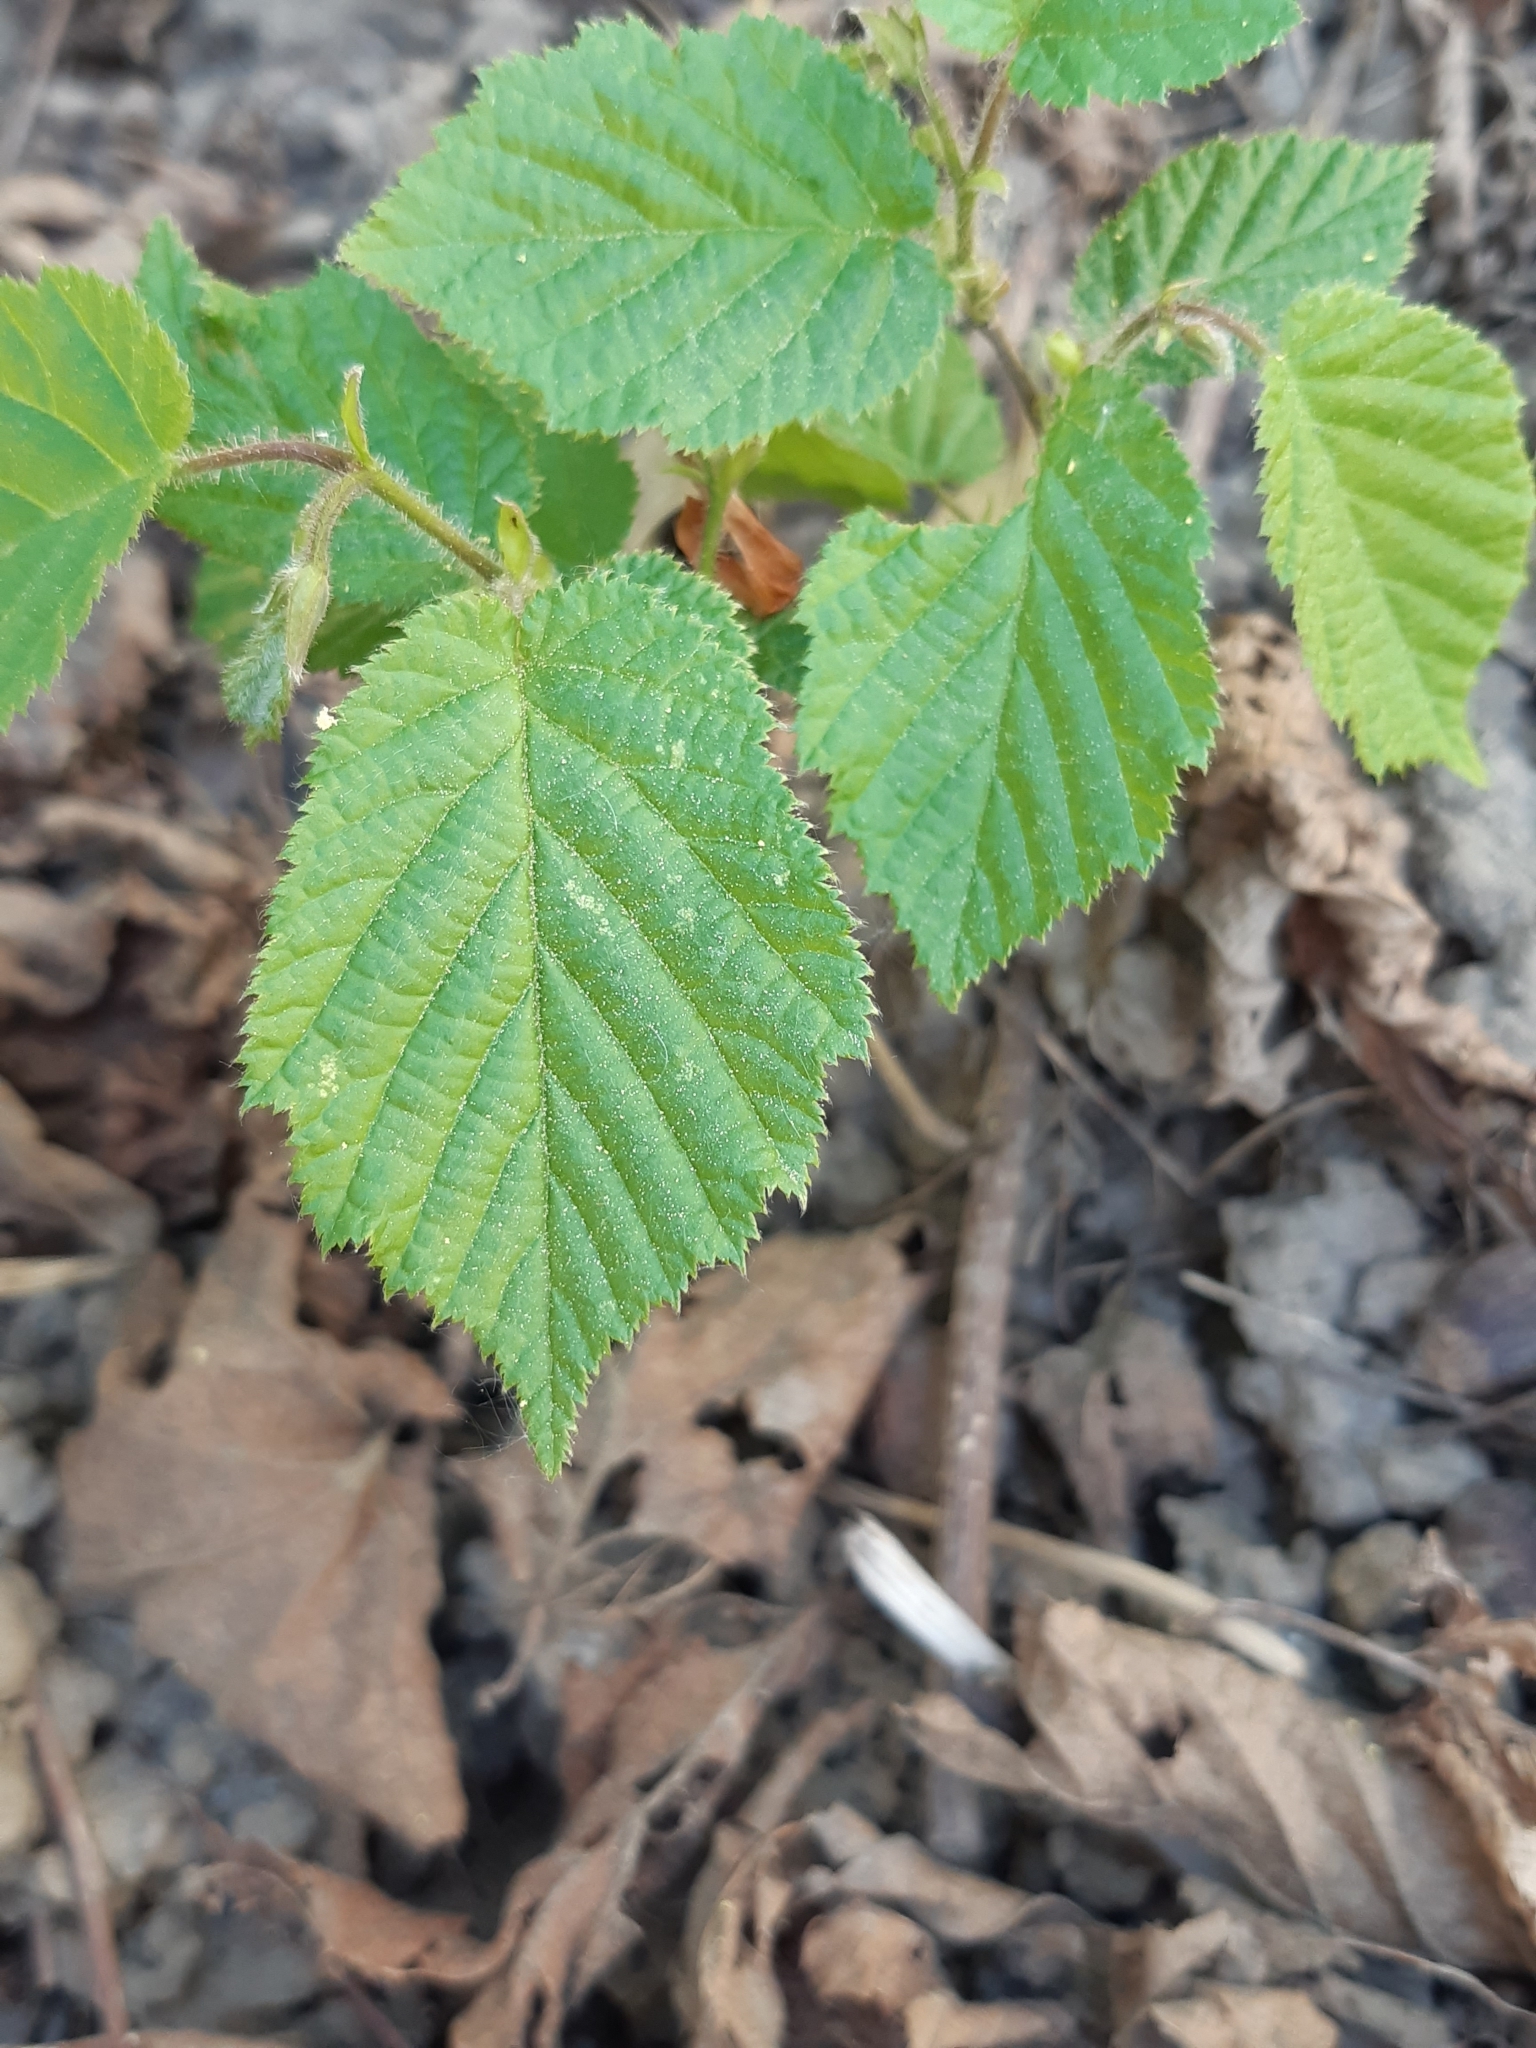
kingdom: Plantae
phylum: Tracheophyta
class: Magnoliopsida
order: Fagales
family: Betulaceae
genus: Corylus
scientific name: Corylus avellana
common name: European hazel
